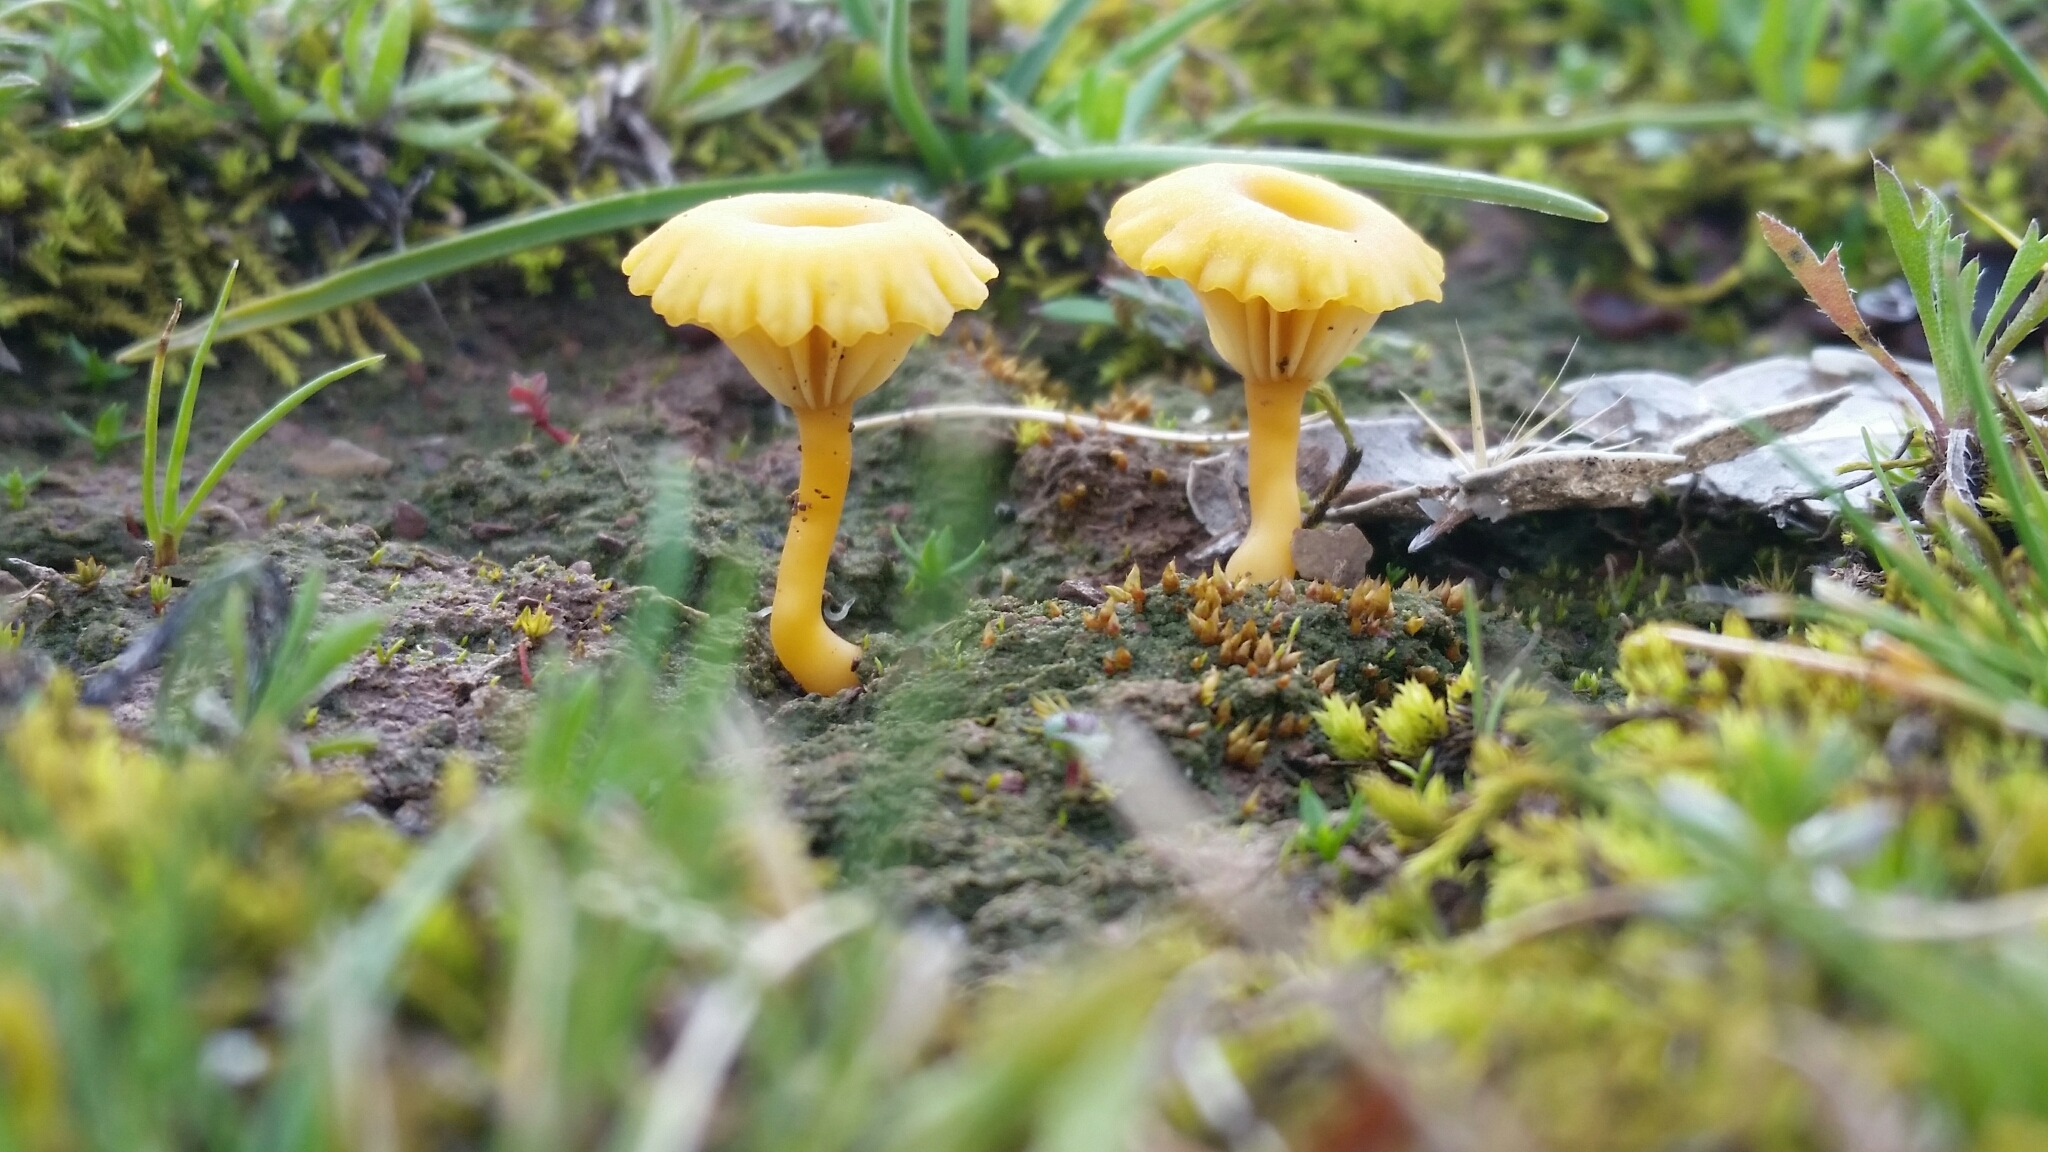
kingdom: Fungi
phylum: Basidiomycota
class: Agaricomycetes
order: Agaricales
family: Hygrophoraceae
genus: Lichenomphalia
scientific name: Lichenomphalia chromacea
